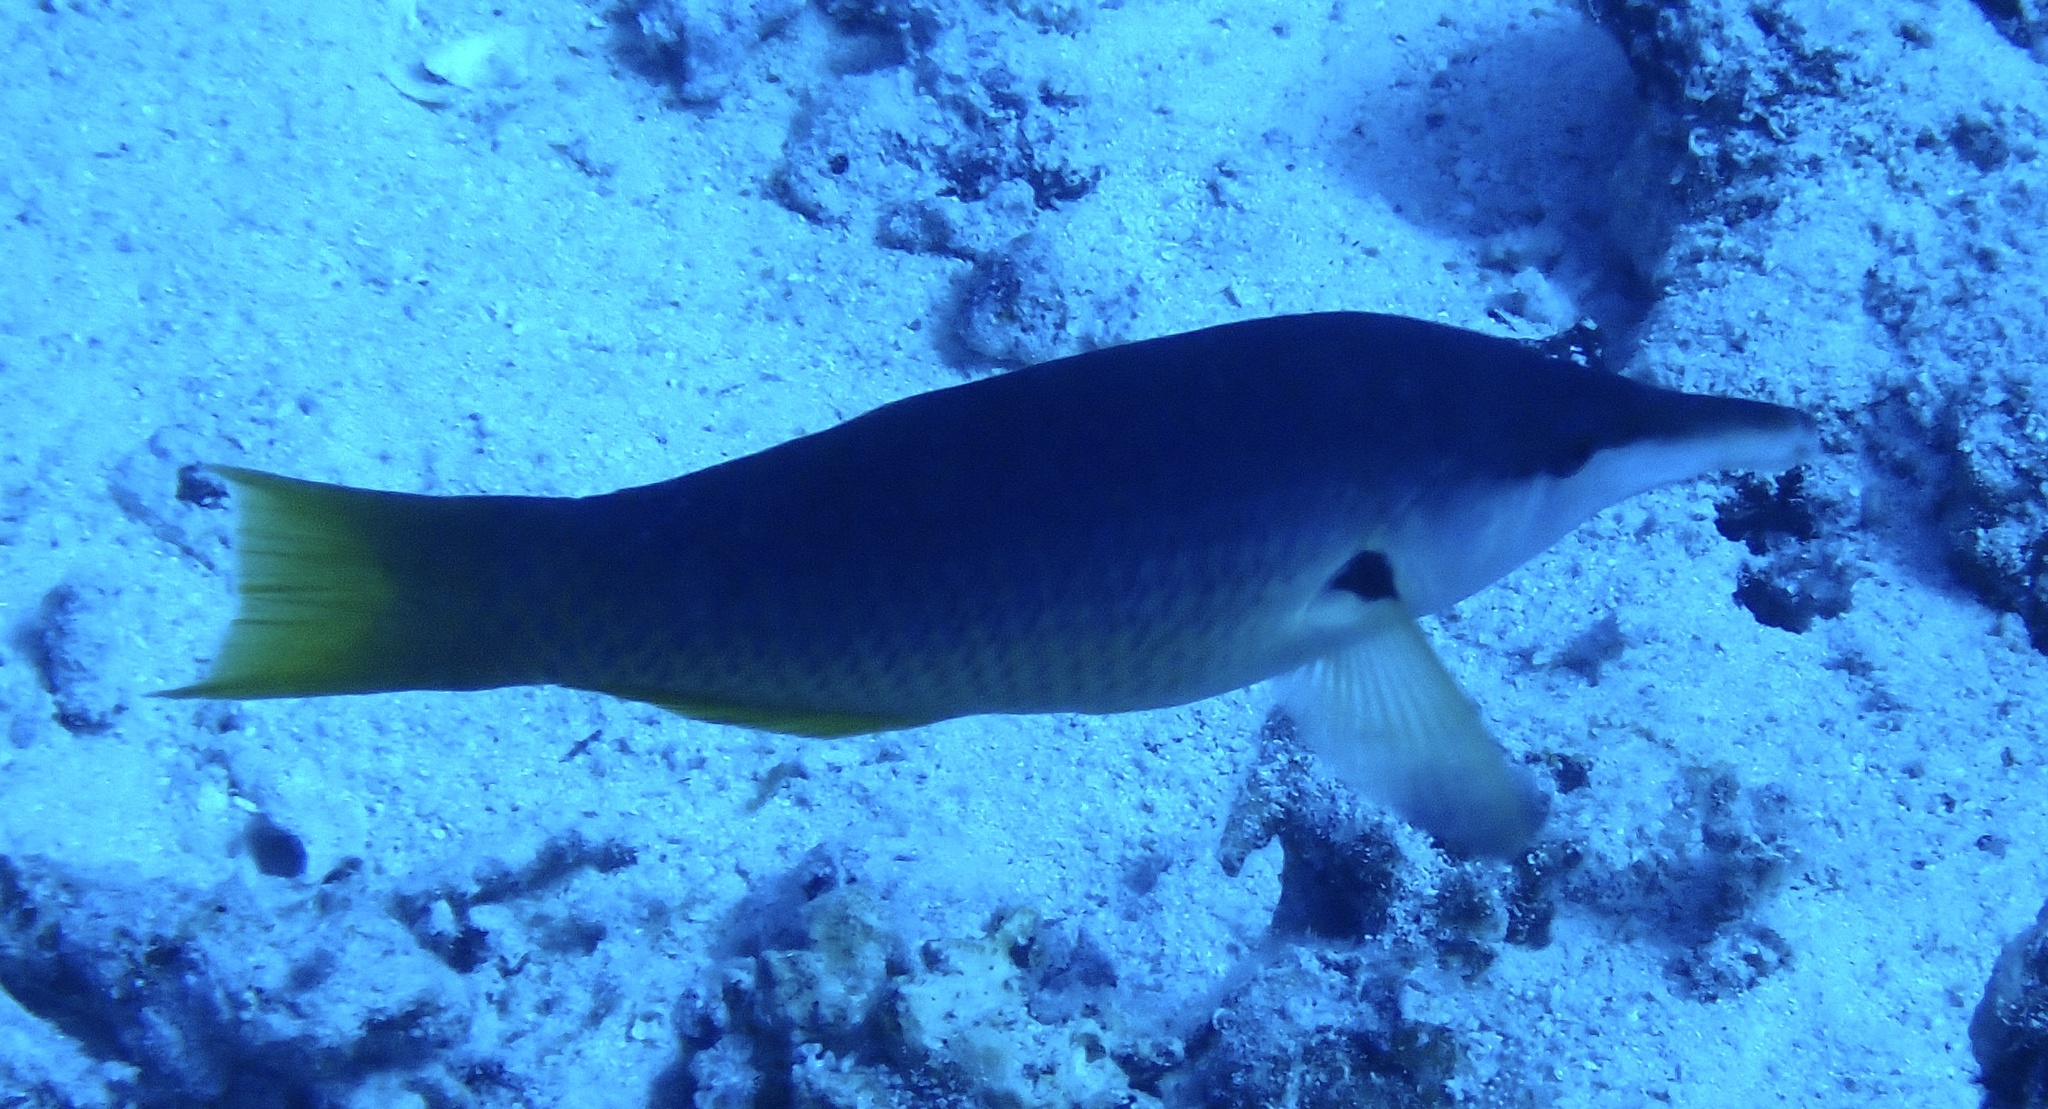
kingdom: Animalia
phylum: Chordata
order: Perciformes
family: Labridae
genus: Gomphosus
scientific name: Gomphosus klunzingeri
